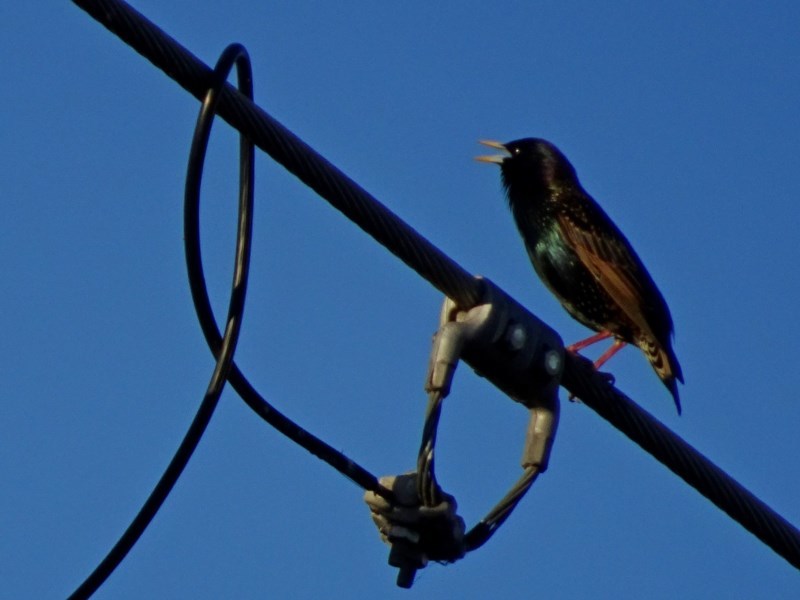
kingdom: Animalia
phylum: Chordata
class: Aves
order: Passeriformes
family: Sturnidae
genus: Sturnus
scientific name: Sturnus vulgaris
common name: Common starling
